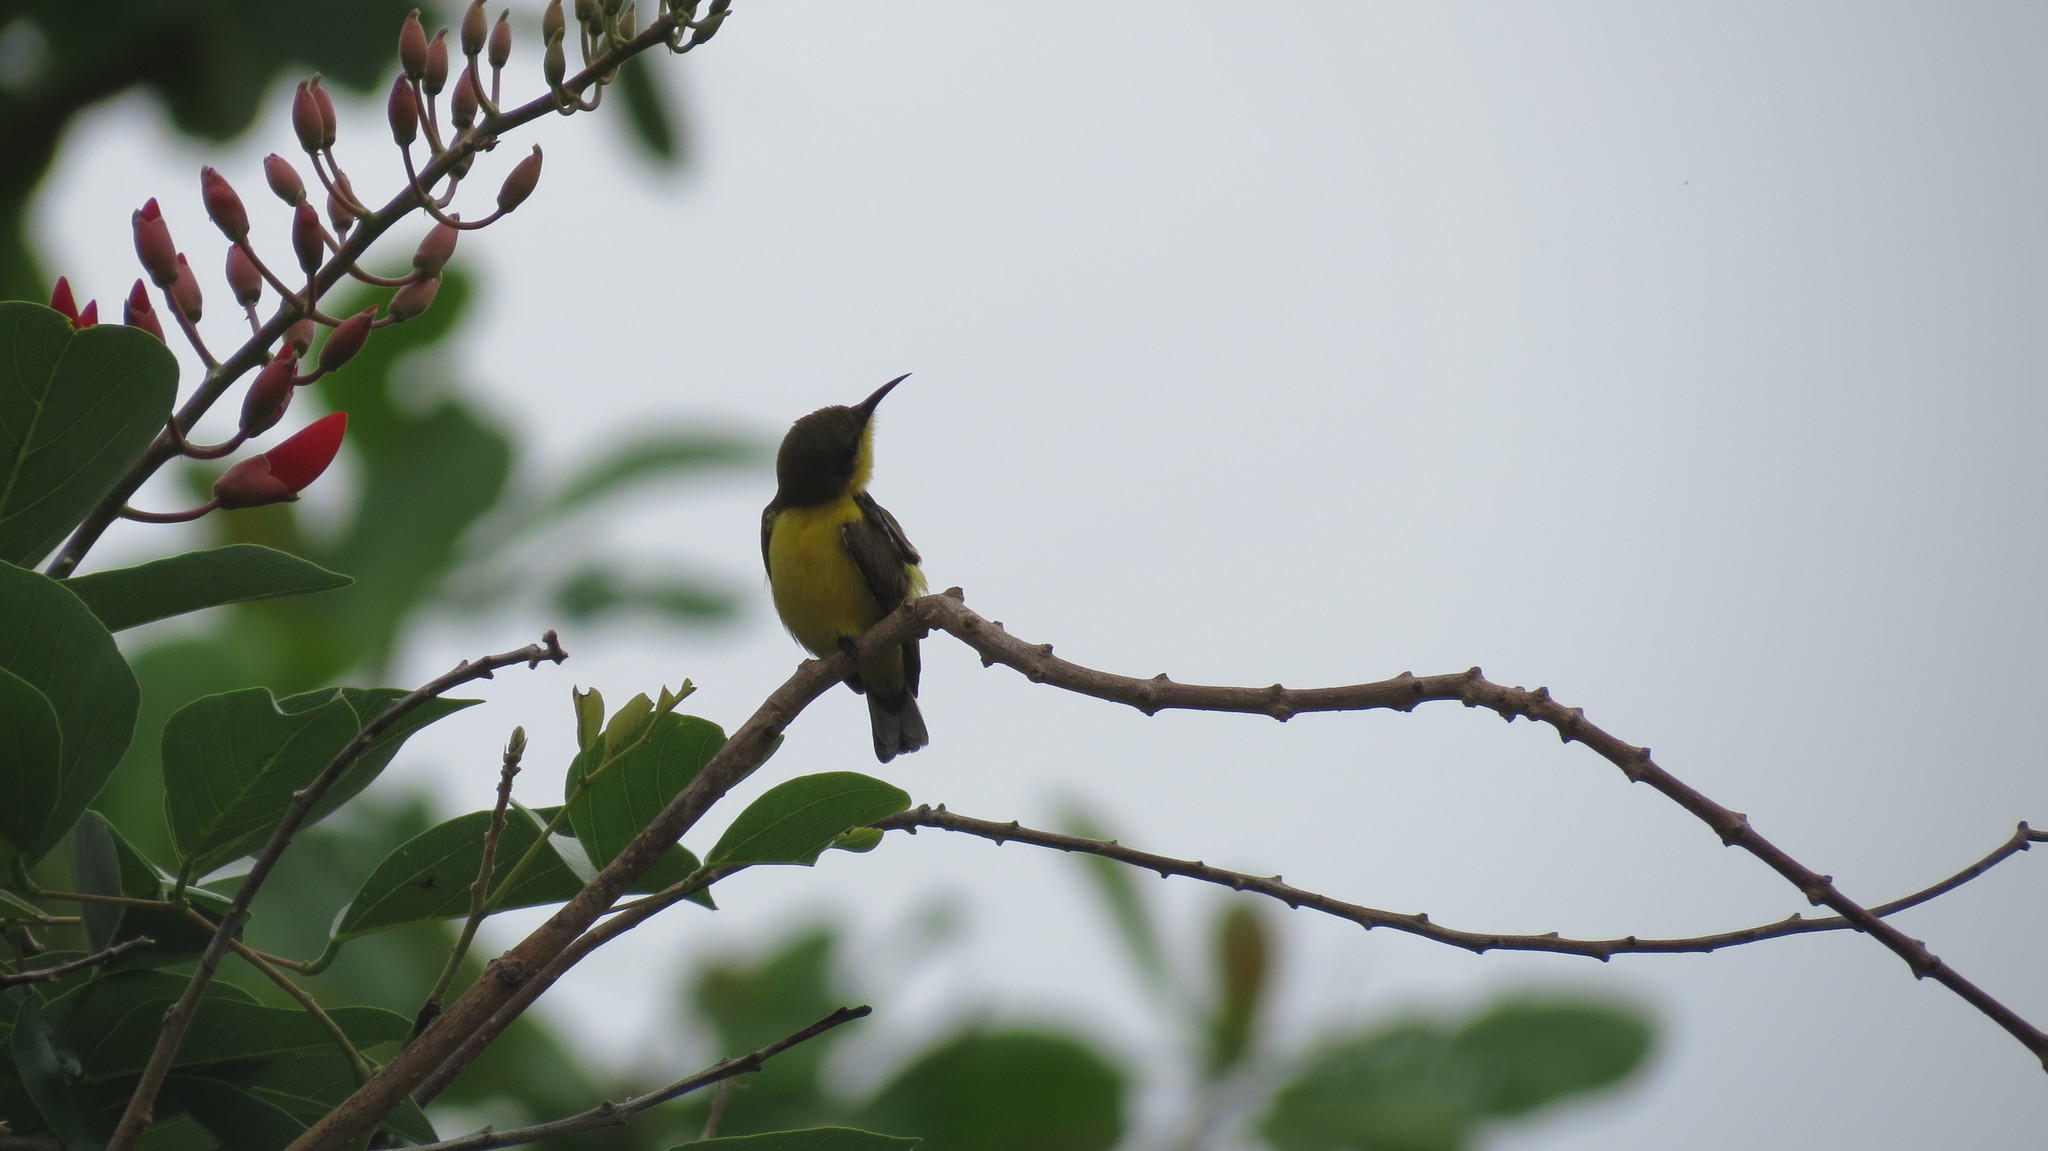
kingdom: Animalia
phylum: Chordata
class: Aves
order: Passeriformes
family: Nectariniidae
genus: Cinnyris
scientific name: Cinnyris
